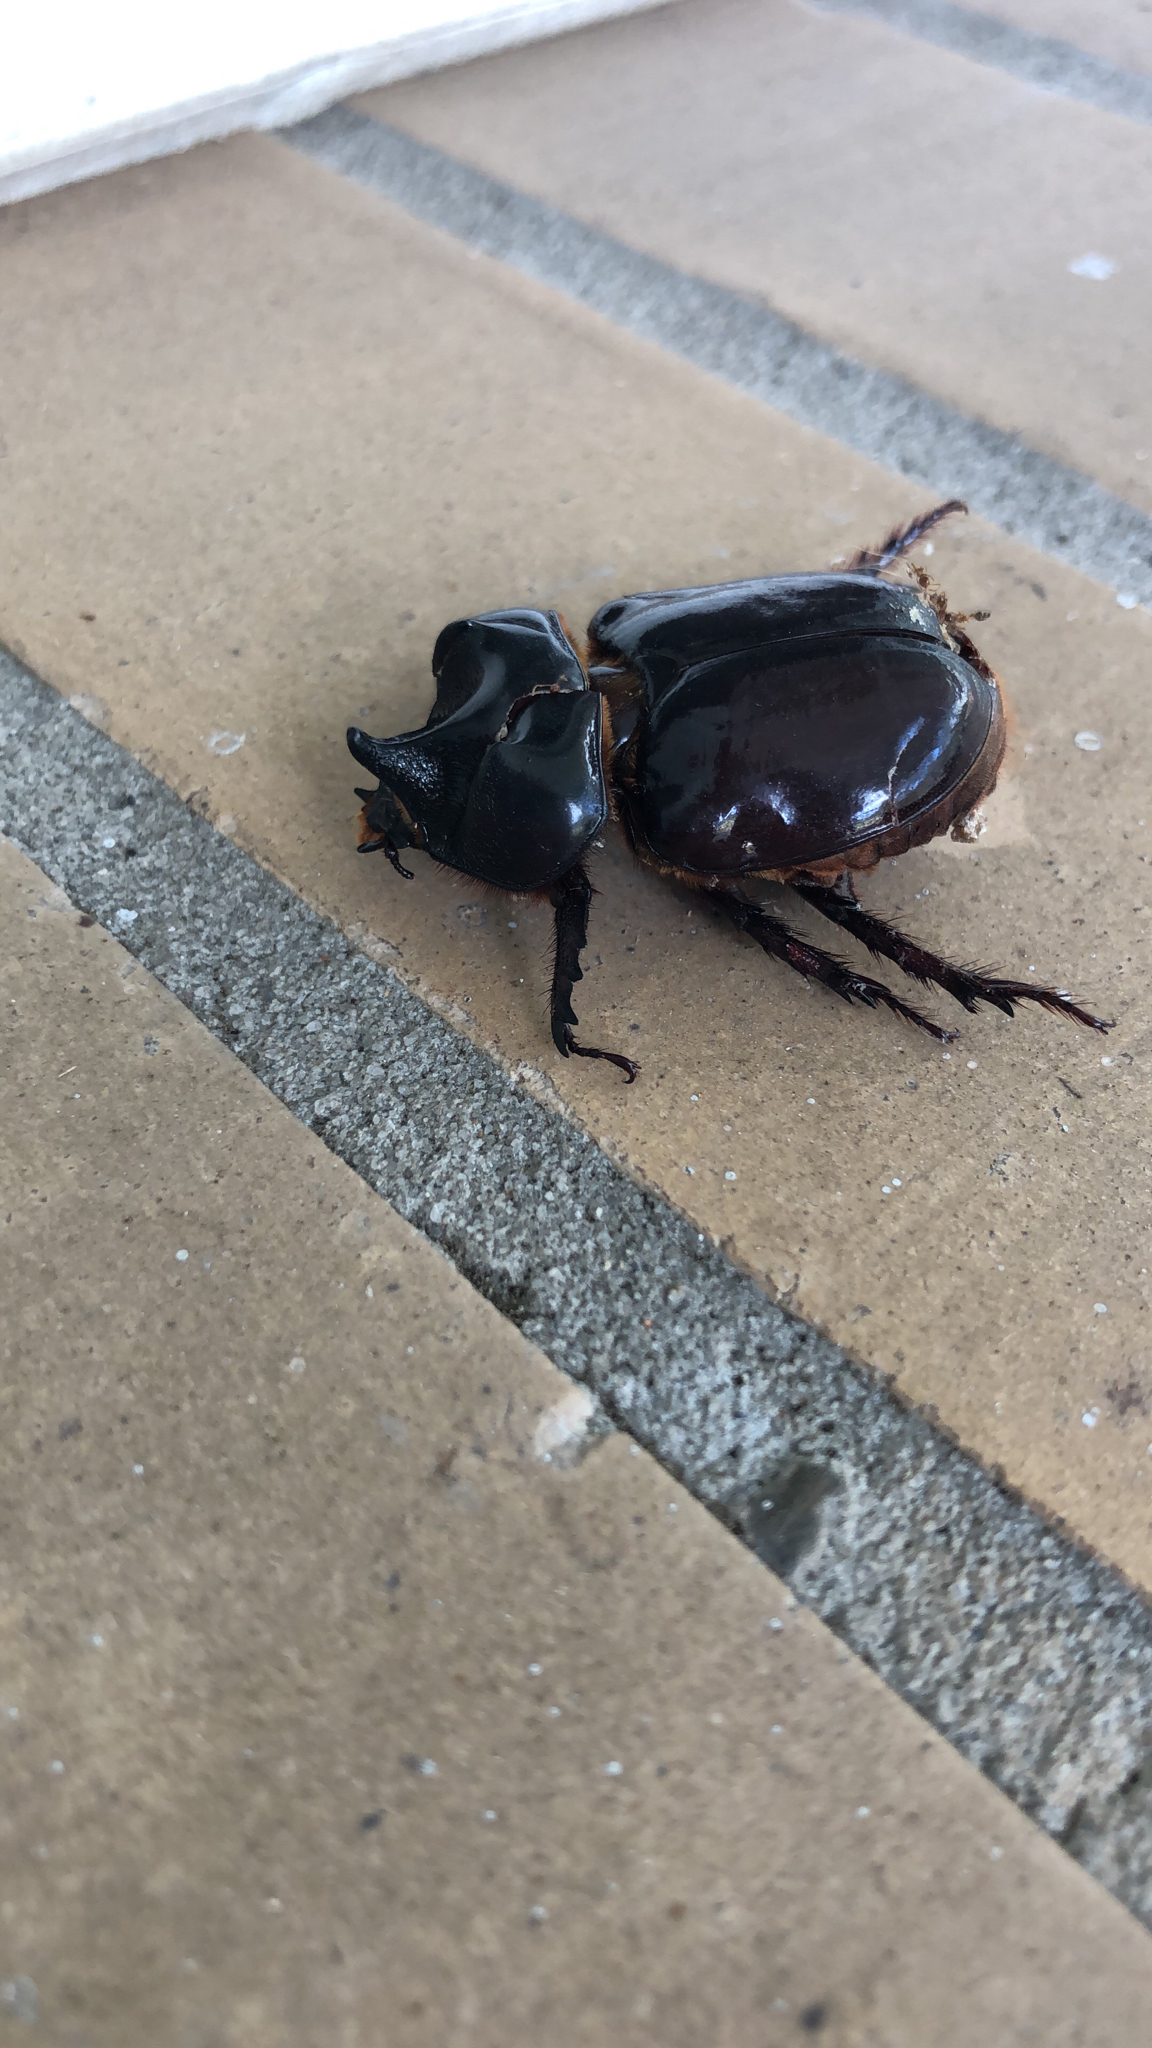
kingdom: Animalia
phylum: Arthropoda
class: Insecta
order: Coleoptera
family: Scarabaeidae
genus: Strategus
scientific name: Strategus antaeus
